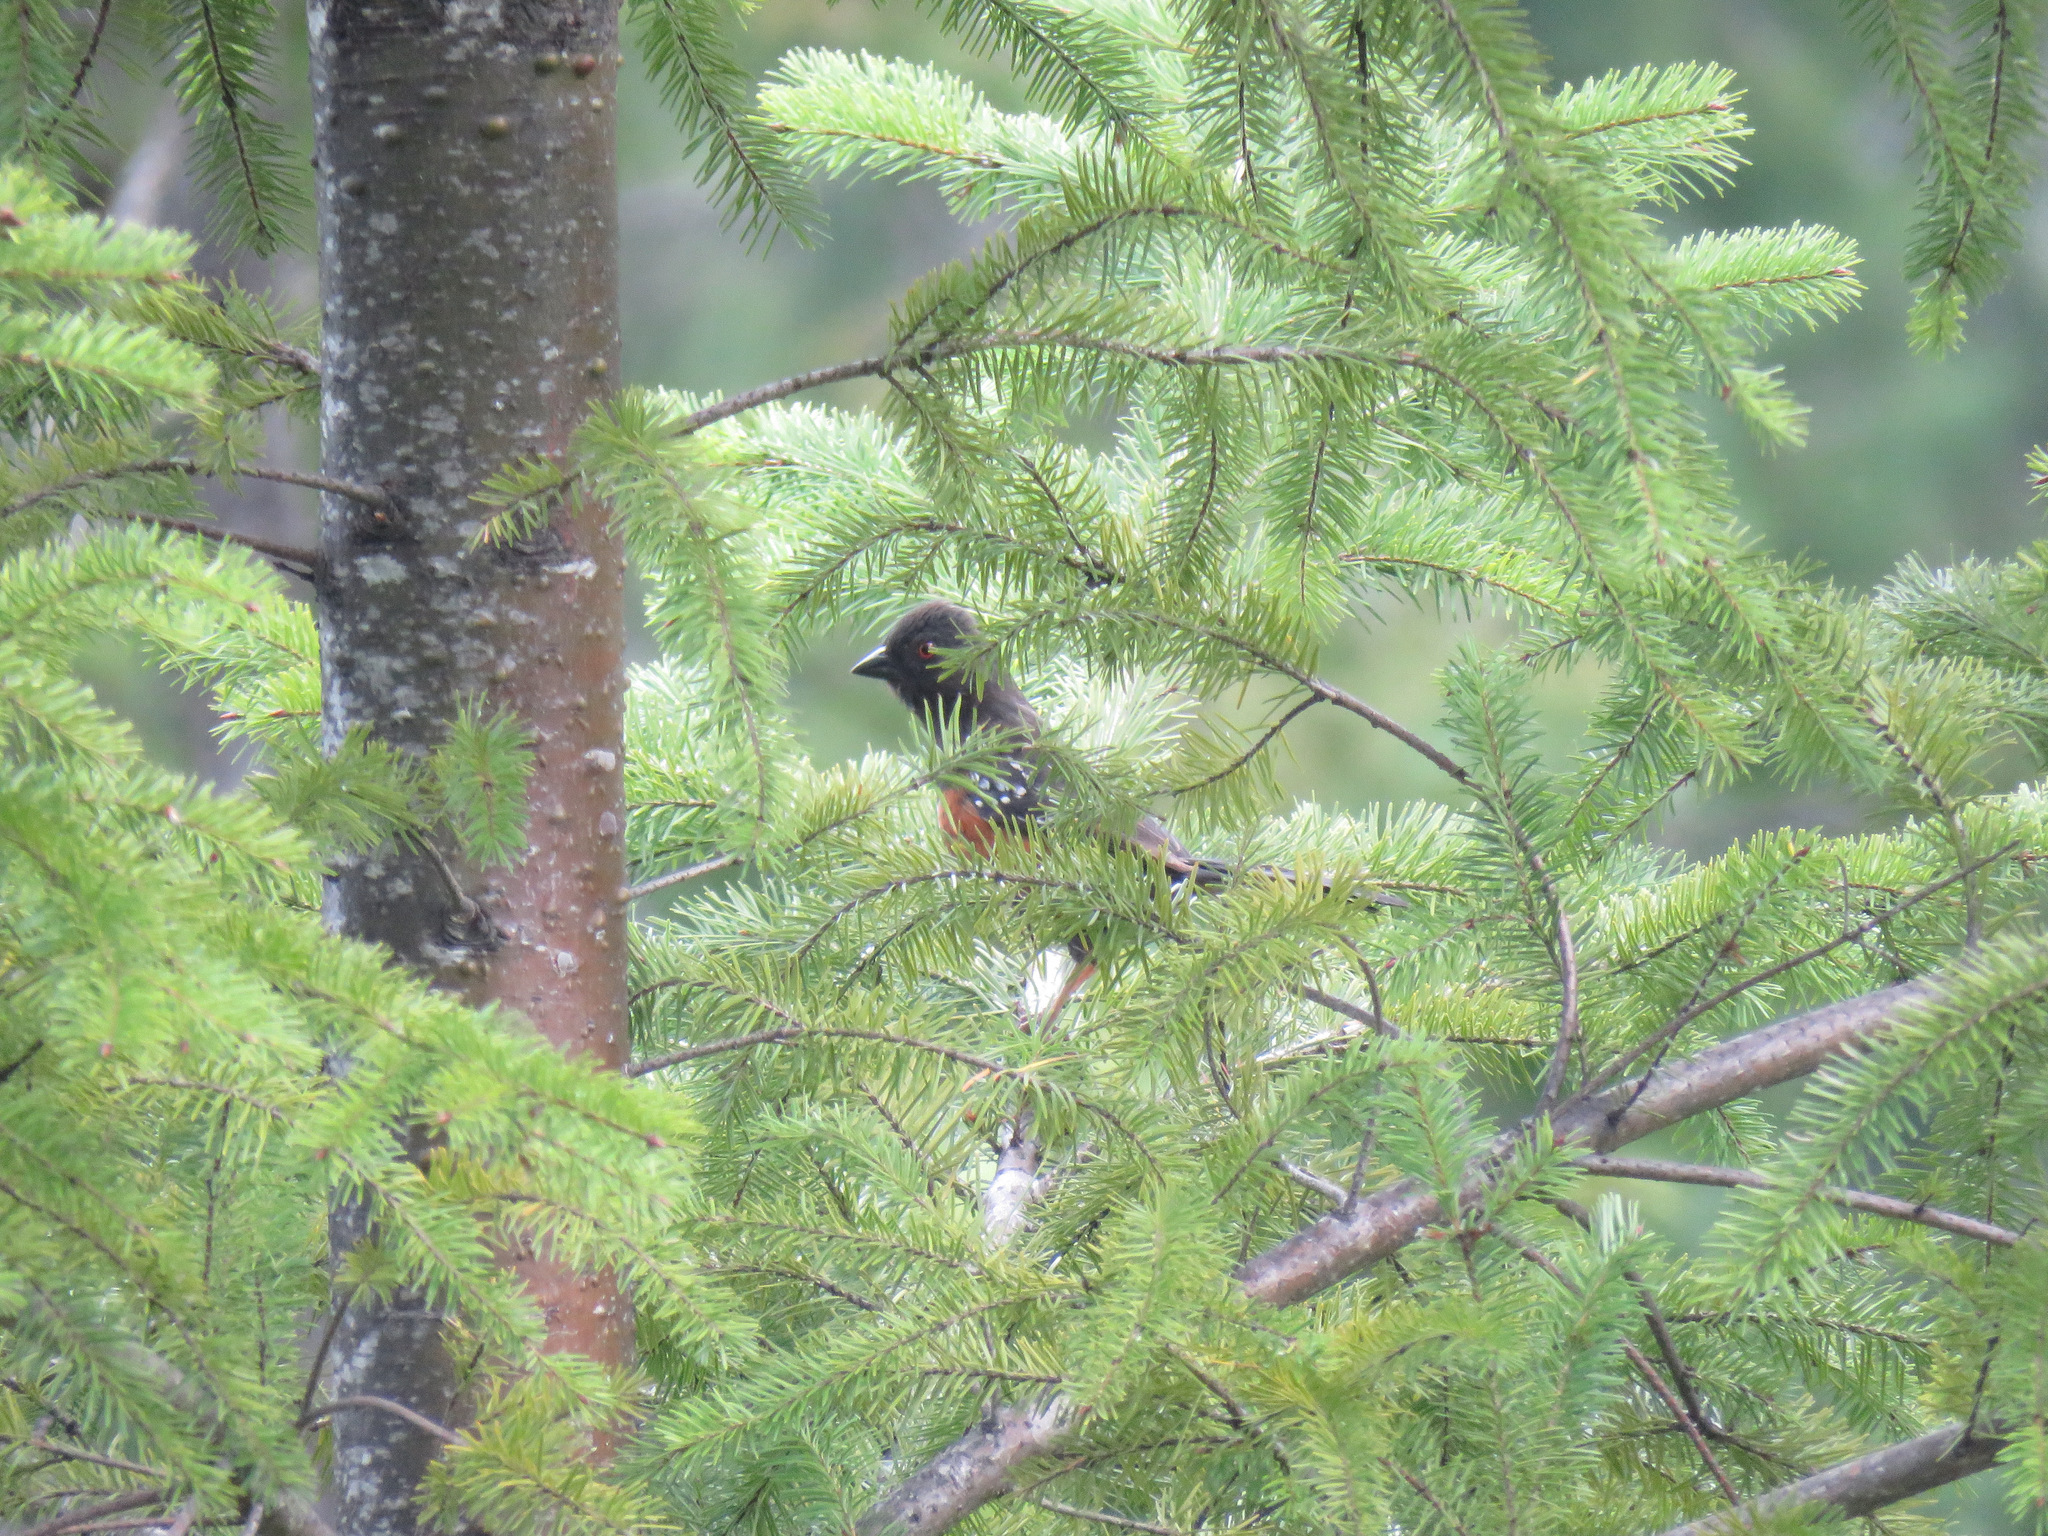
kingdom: Animalia
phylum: Chordata
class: Aves
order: Passeriformes
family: Passerellidae
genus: Pipilo
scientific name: Pipilo maculatus
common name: Spotted towhee
